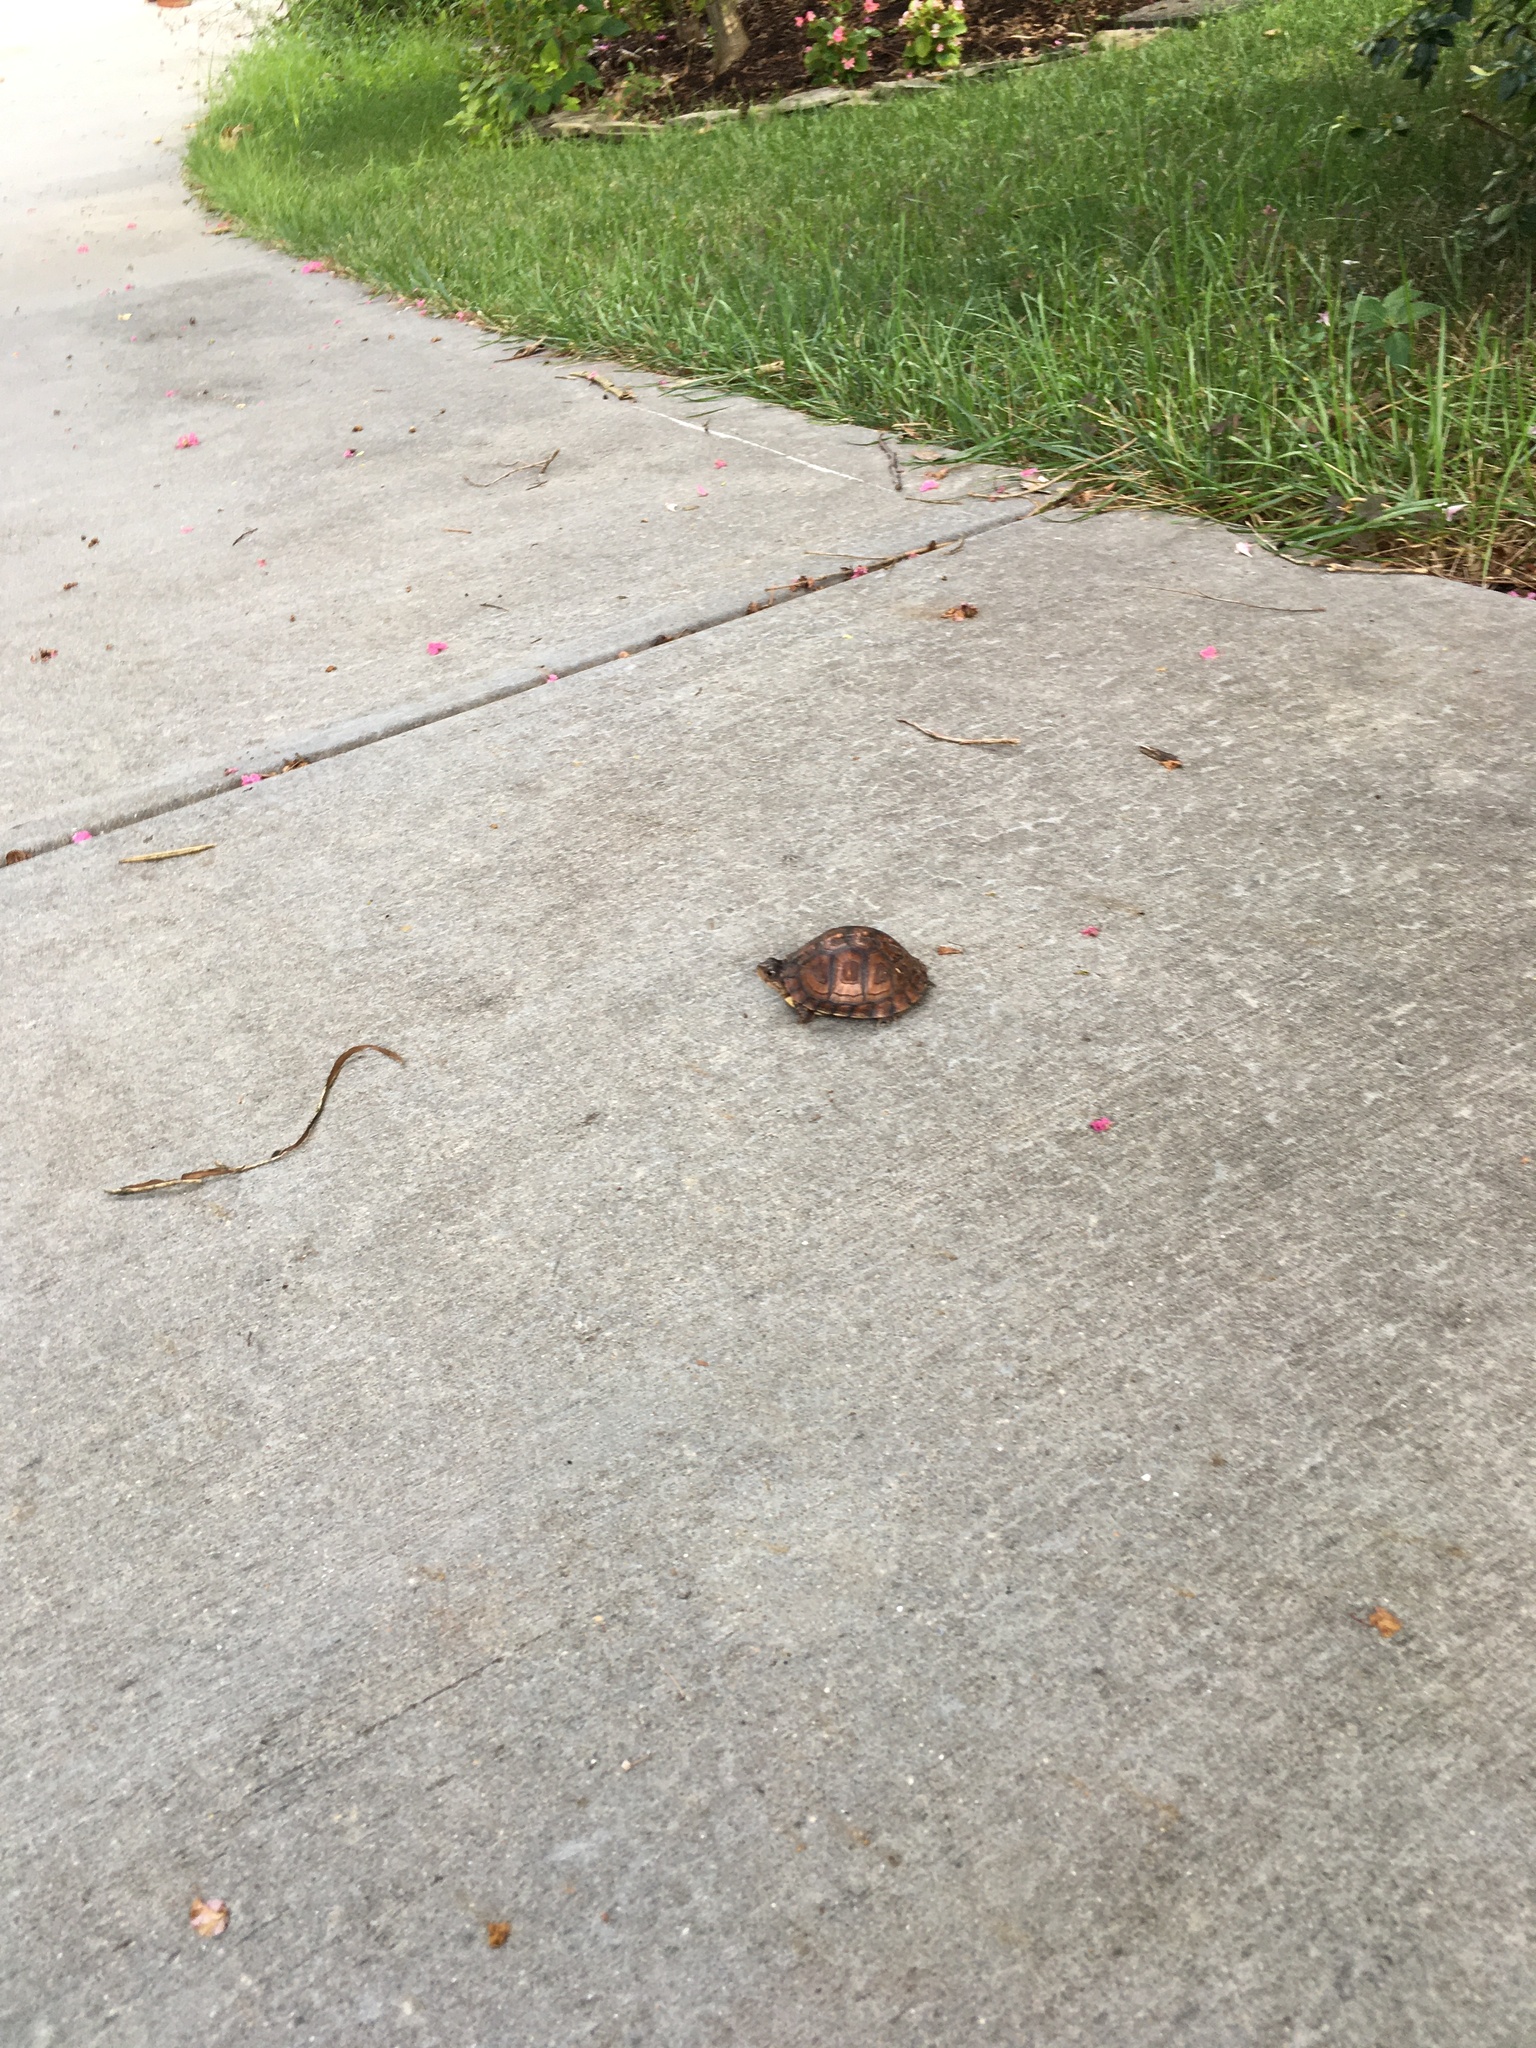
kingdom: Animalia
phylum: Chordata
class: Testudines
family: Emydidae
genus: Terrapene
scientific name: Terrapene carolina
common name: Common box turtle
